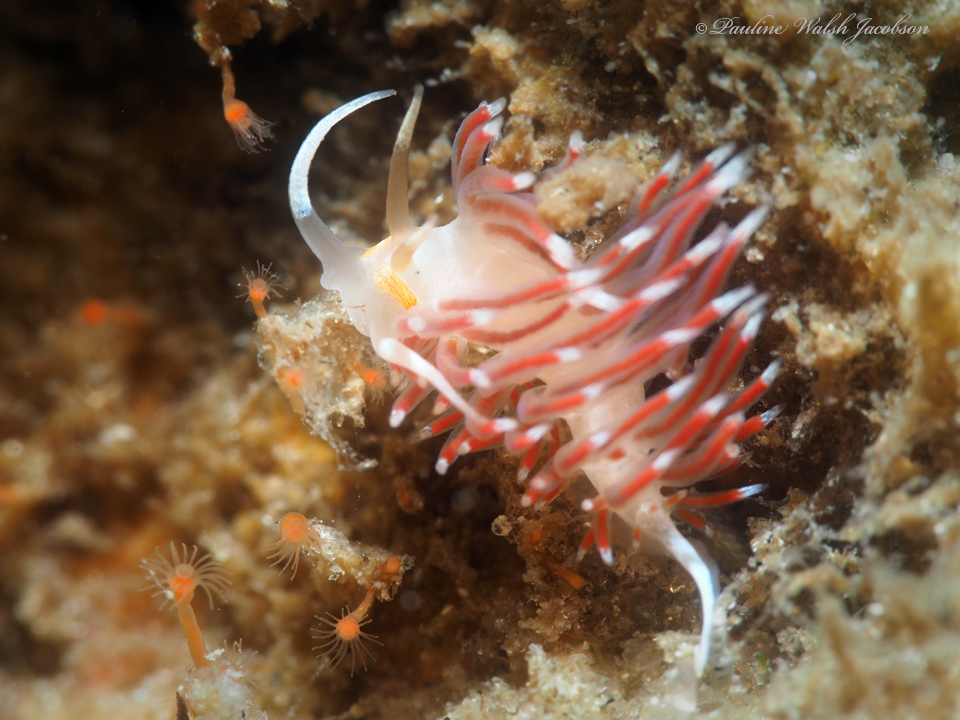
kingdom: Animalia
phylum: Mollusca
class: Gastropoda
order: Nudibranchia
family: Facelinidae
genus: Cratena
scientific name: Cratena minor
